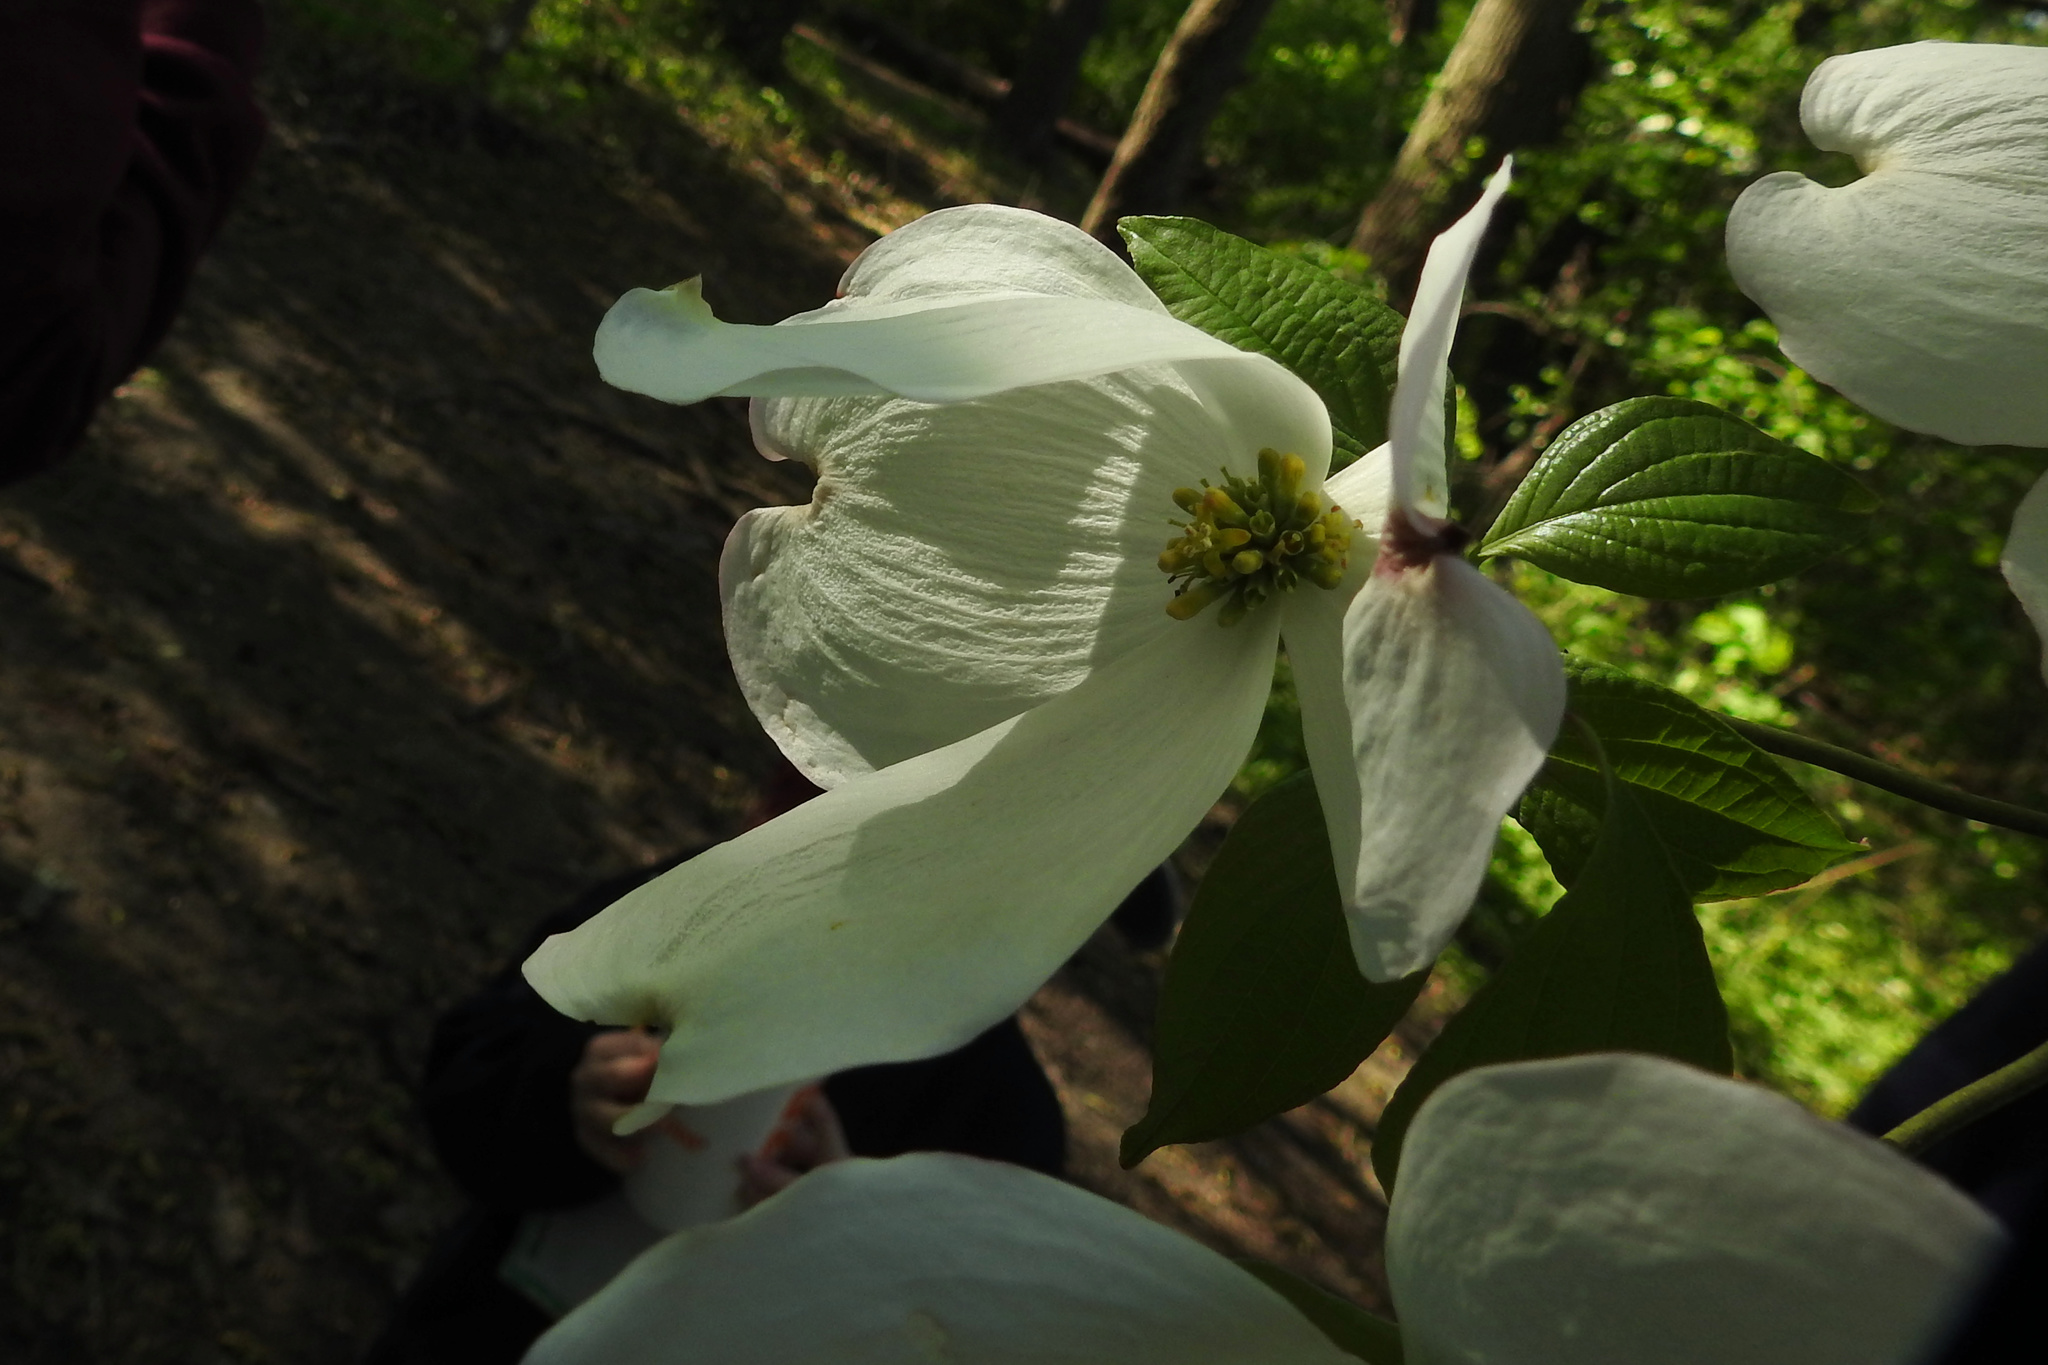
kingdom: Plantae
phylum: Tracheophyta
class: Magnoliopsida
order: Cornales
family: Cornaceae
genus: Cornus
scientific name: Cornus florida
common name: Flowering dogwood
